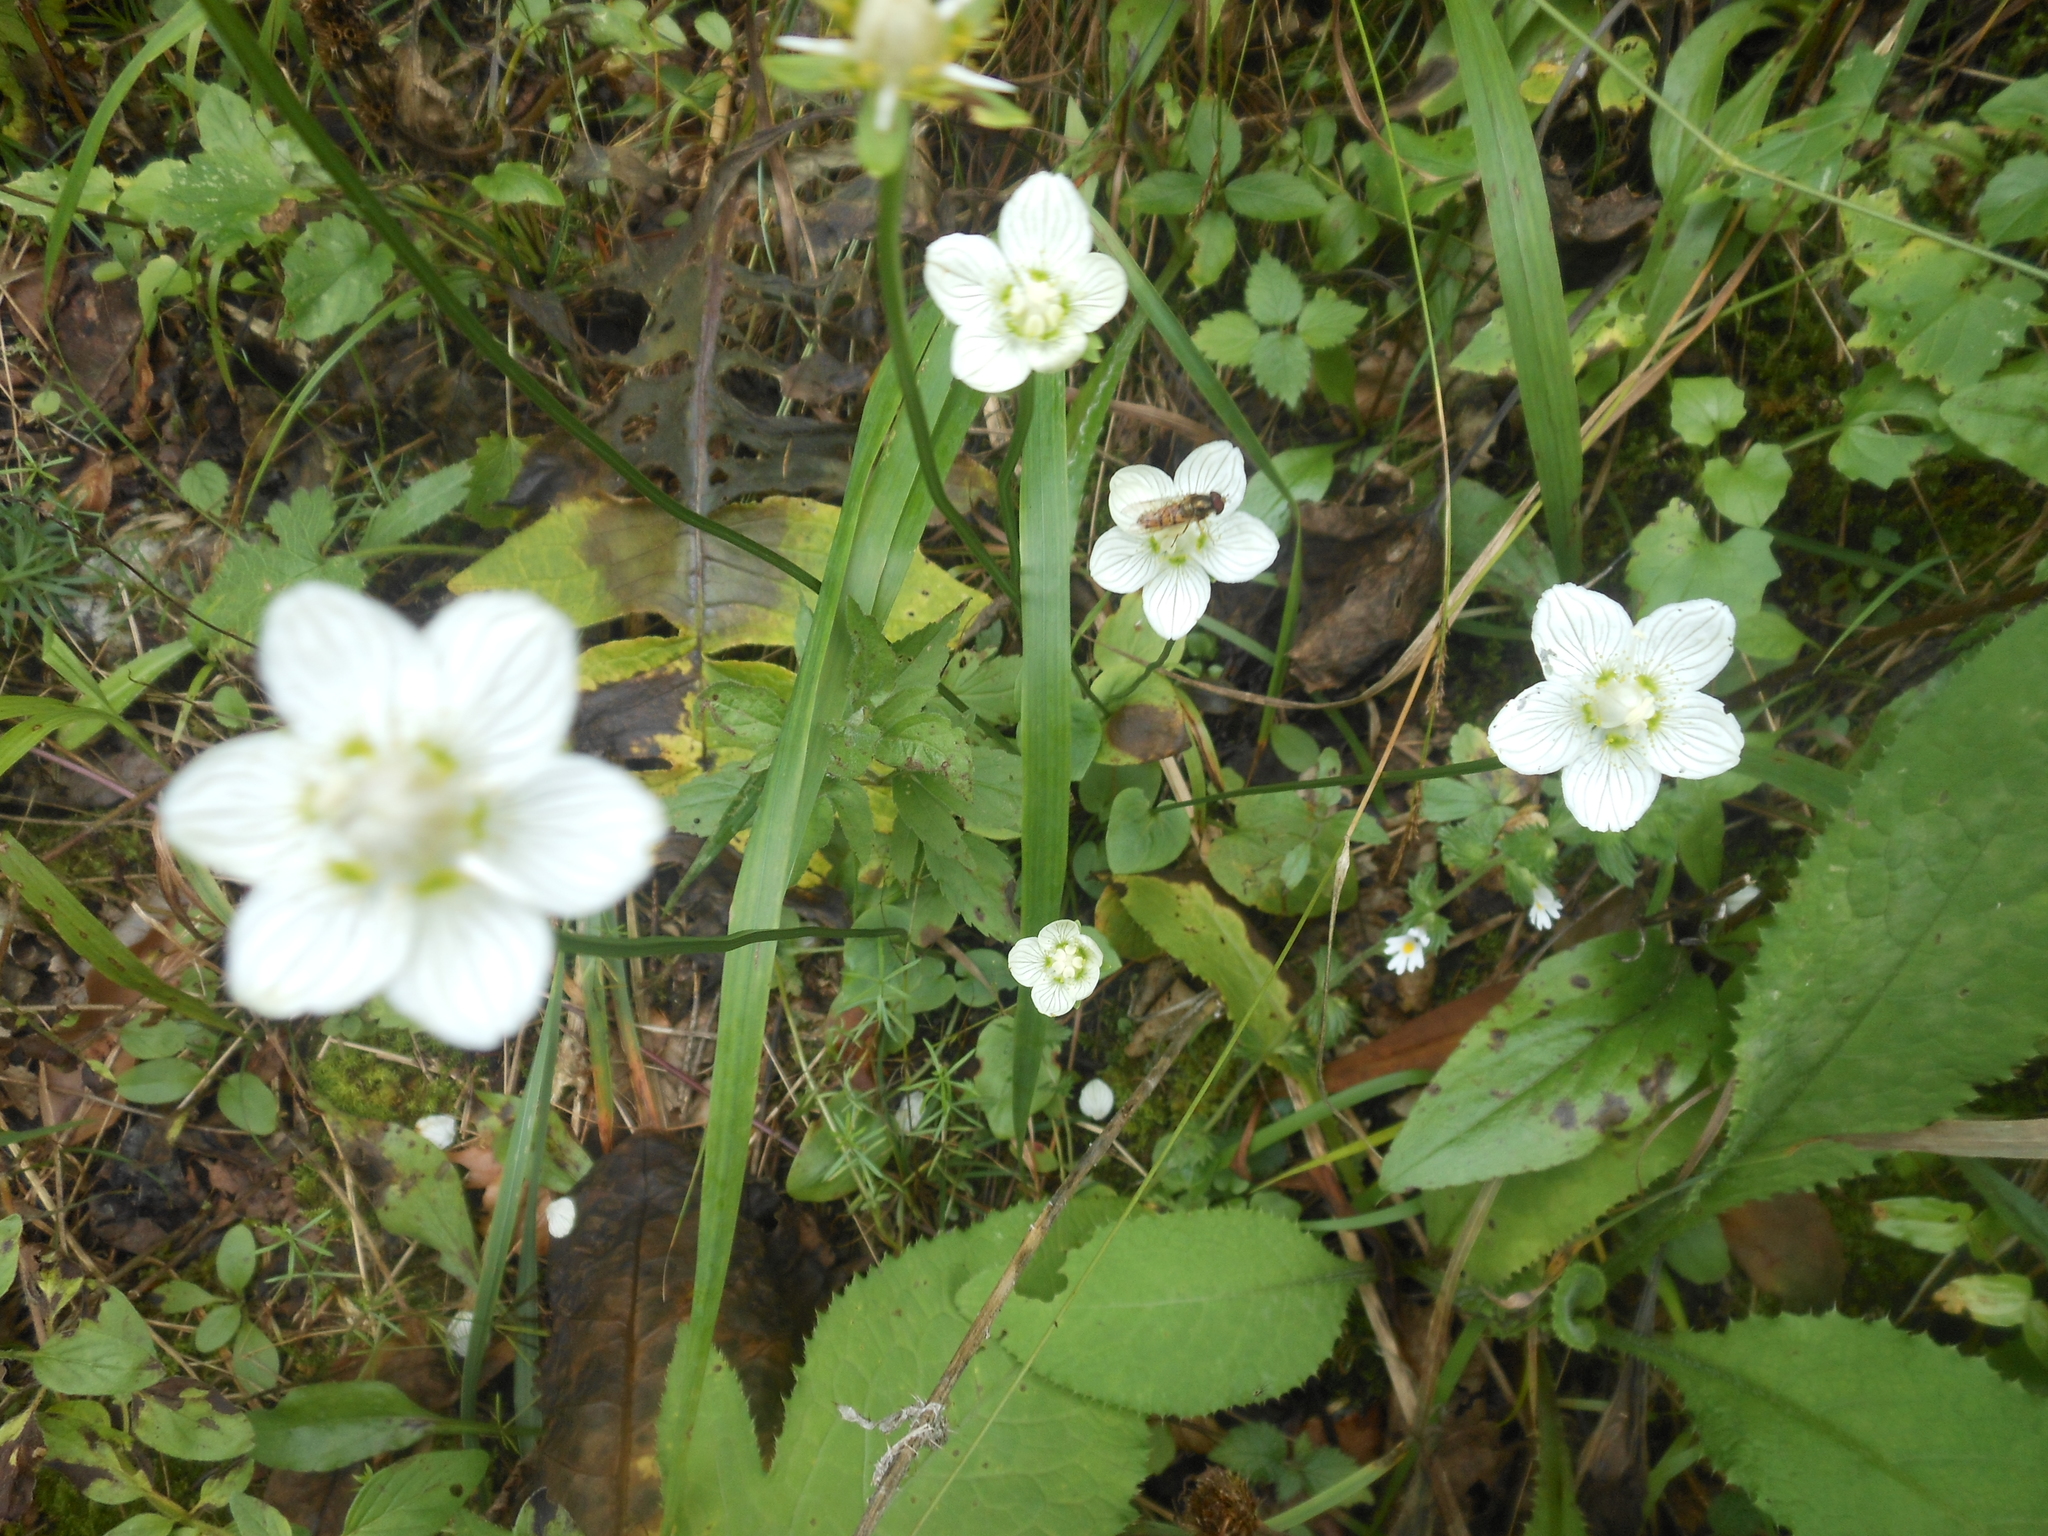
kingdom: Plantae
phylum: Tracheophyta
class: Magnoliopsida
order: Celastrales
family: Parnassiaceae
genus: Parnassia
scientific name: Parnassia palustris
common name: Grass-of-parnassus
